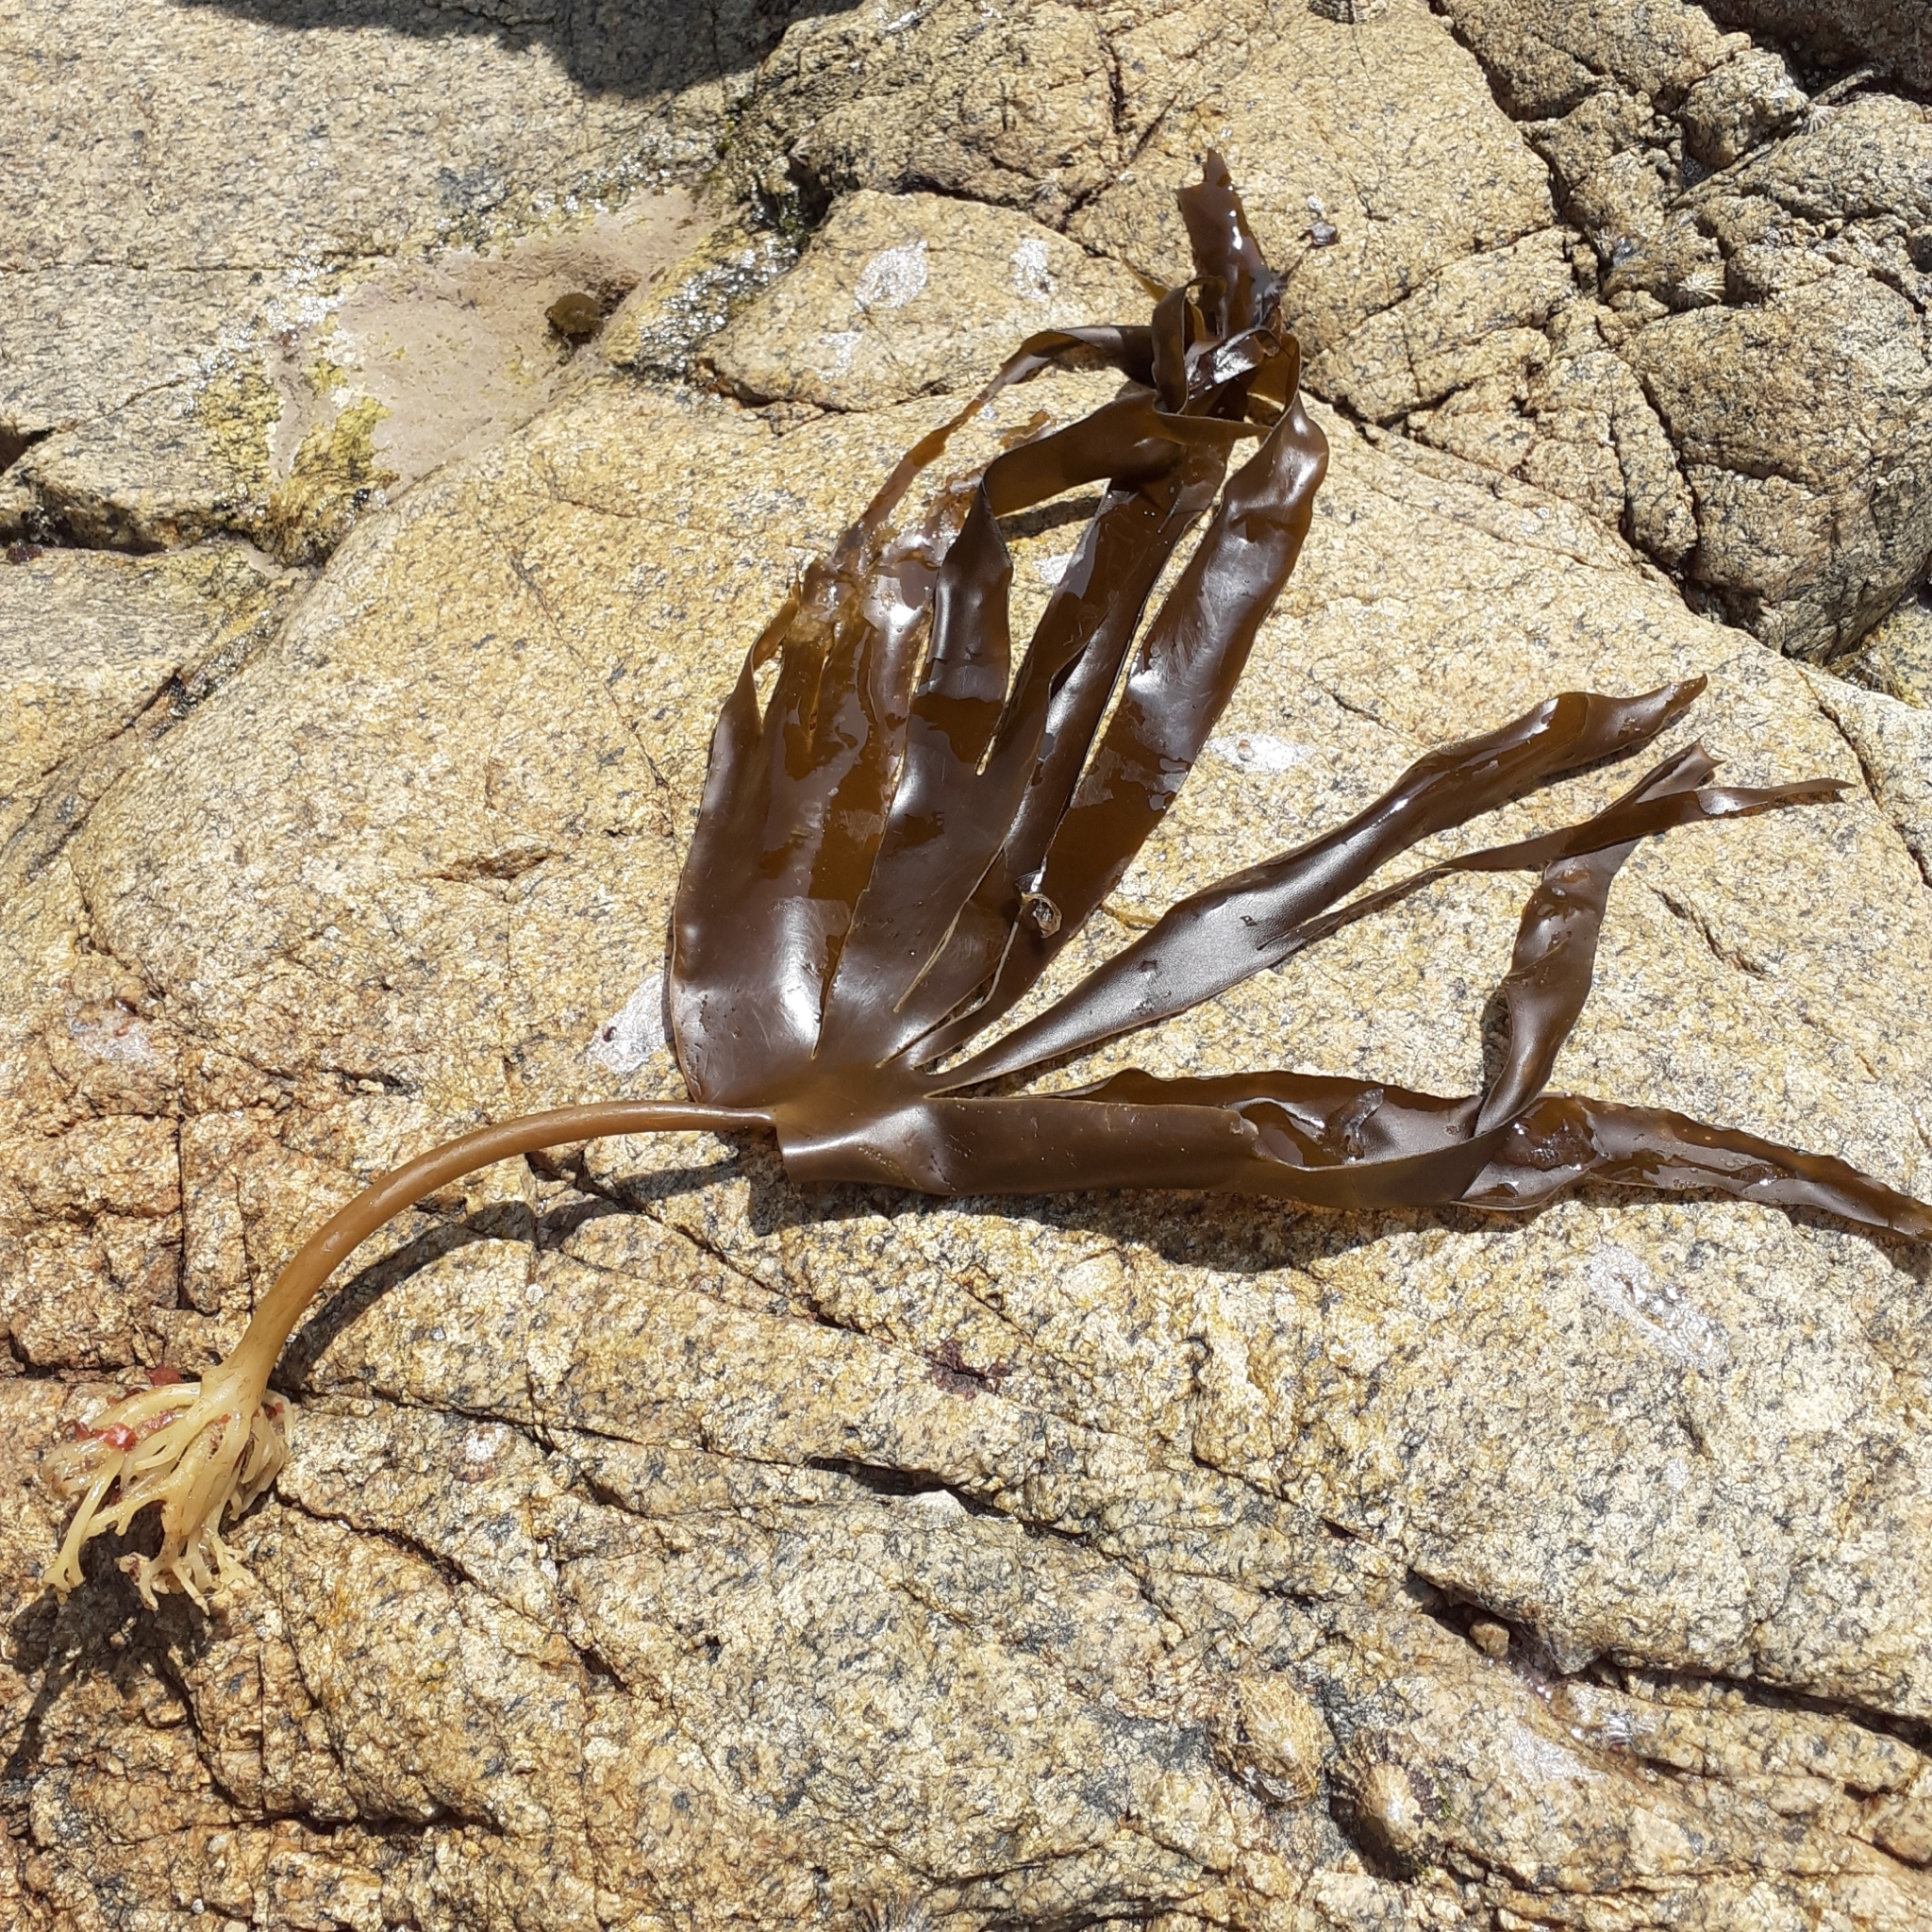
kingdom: Chromista
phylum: Ochrophyta
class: Phaeophyceae
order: Laminariales
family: Laminariaceae
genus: Laminaria
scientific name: Laminaria digitata
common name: Oarweed
